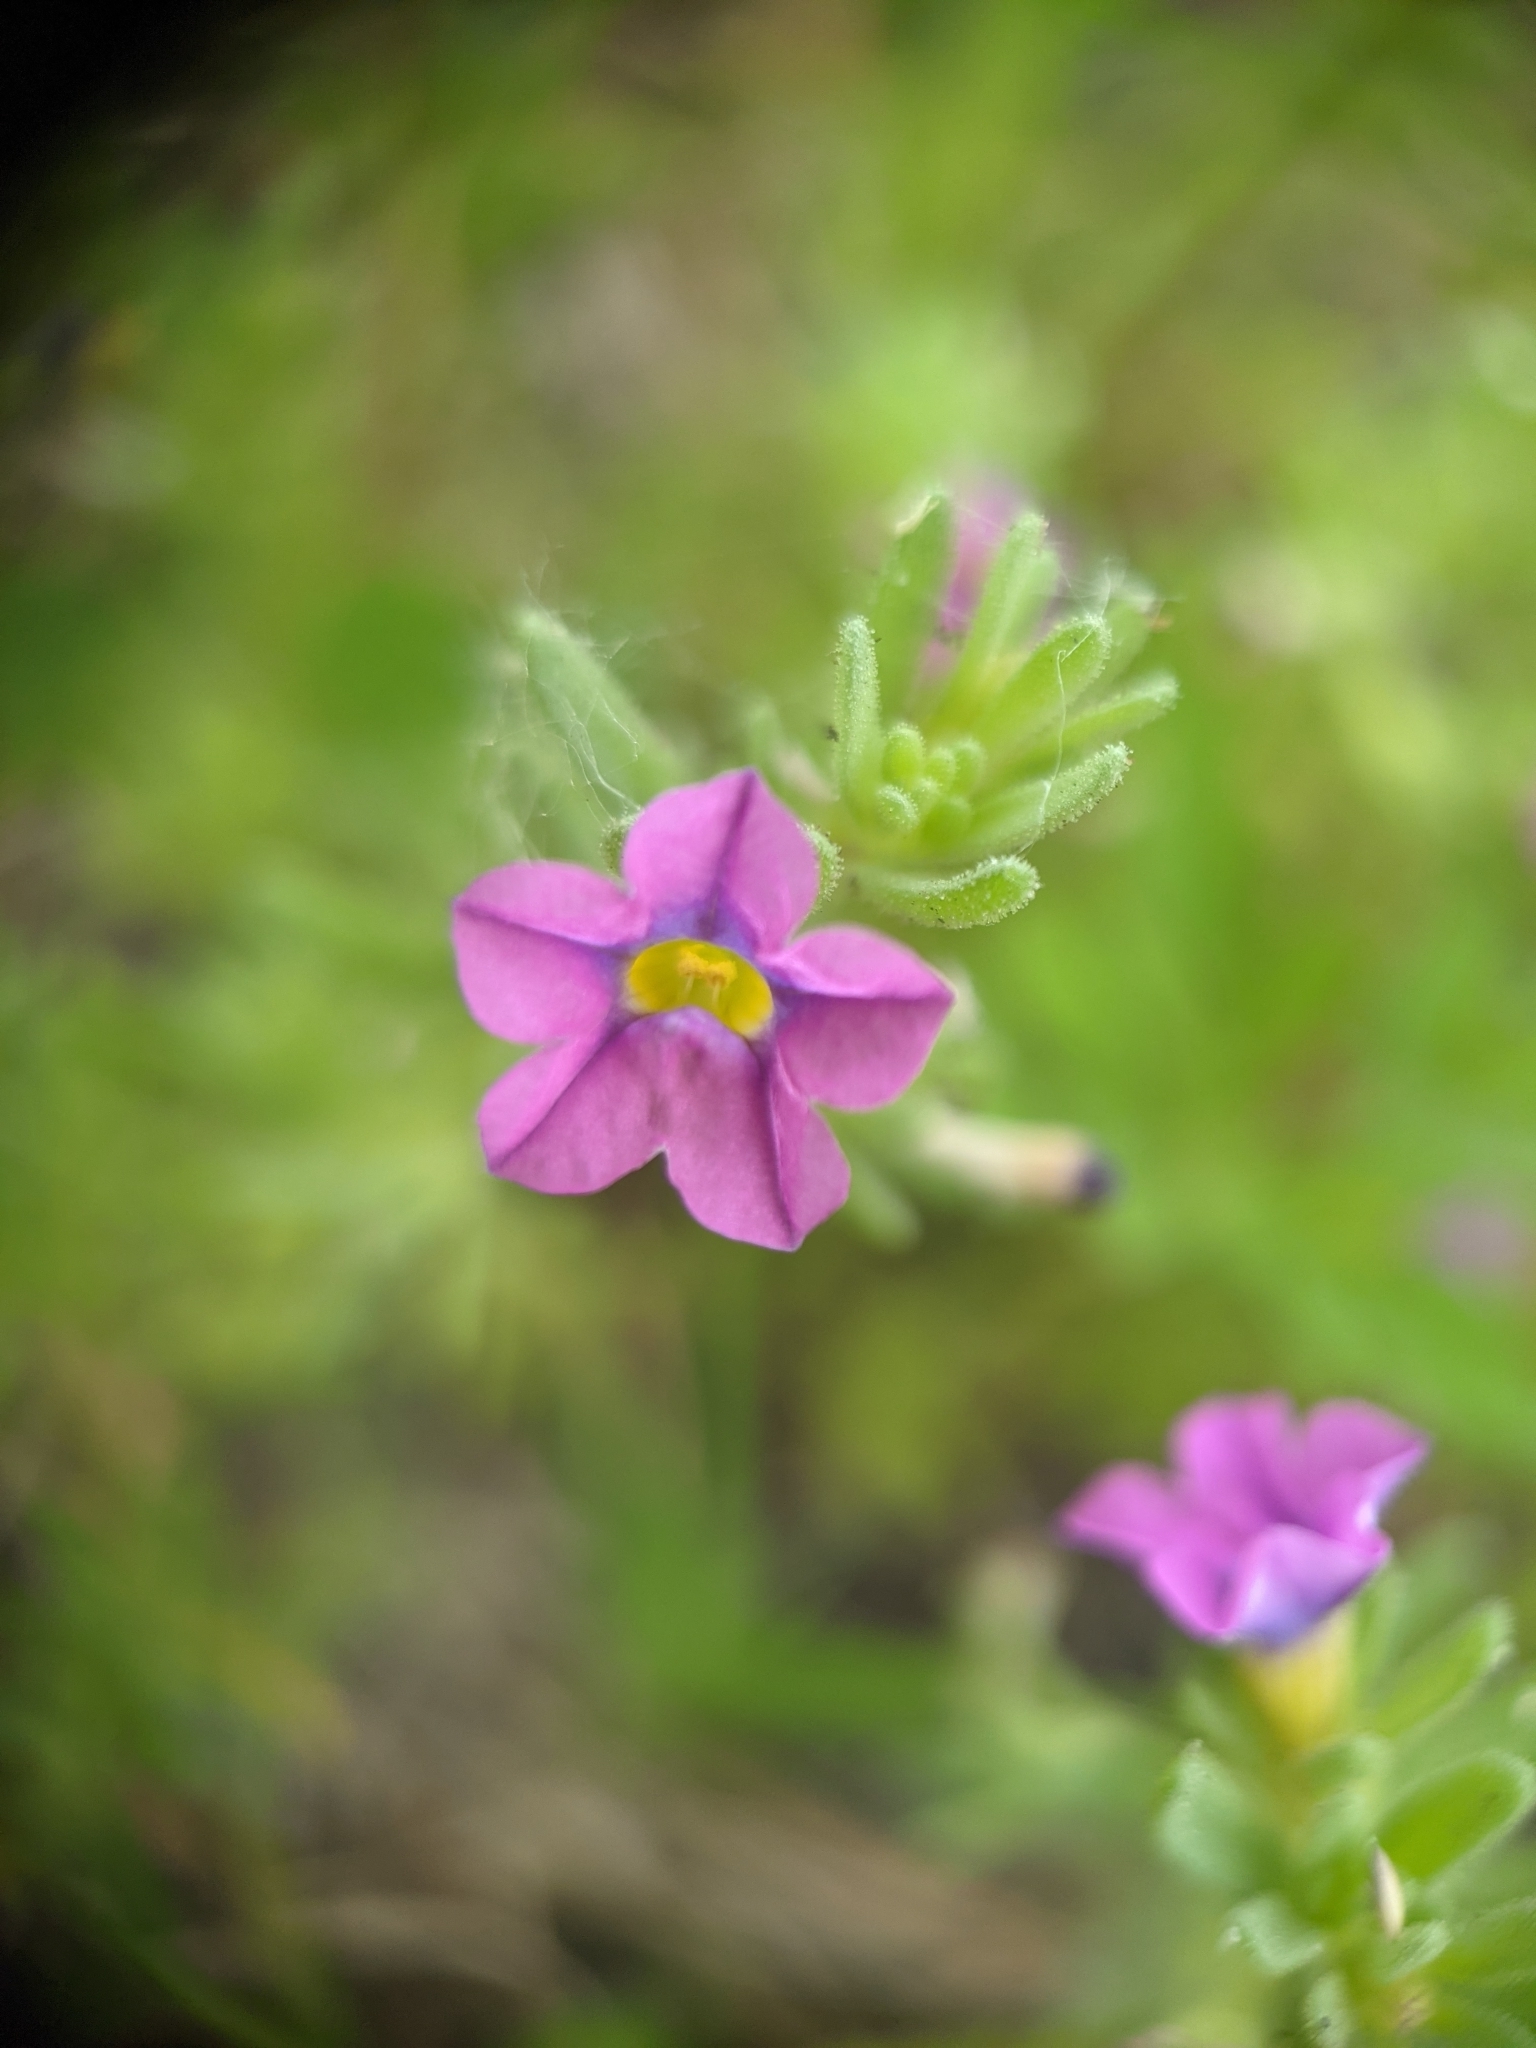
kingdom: Plantae
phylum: Tracheophyta
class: Magnoliopsida
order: Solanales
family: Solanaceae
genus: Calibrachoa
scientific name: Calibrachoa parviflora
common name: Seaside petunia
